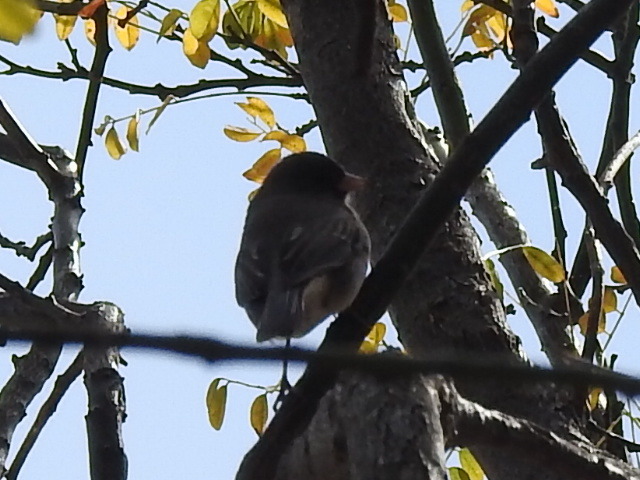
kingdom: Animalia
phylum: Chordata
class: Aves
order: Passeriformes
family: Passerellidae
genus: Junco
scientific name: Junco hyemalis
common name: Dark-eyed junco
